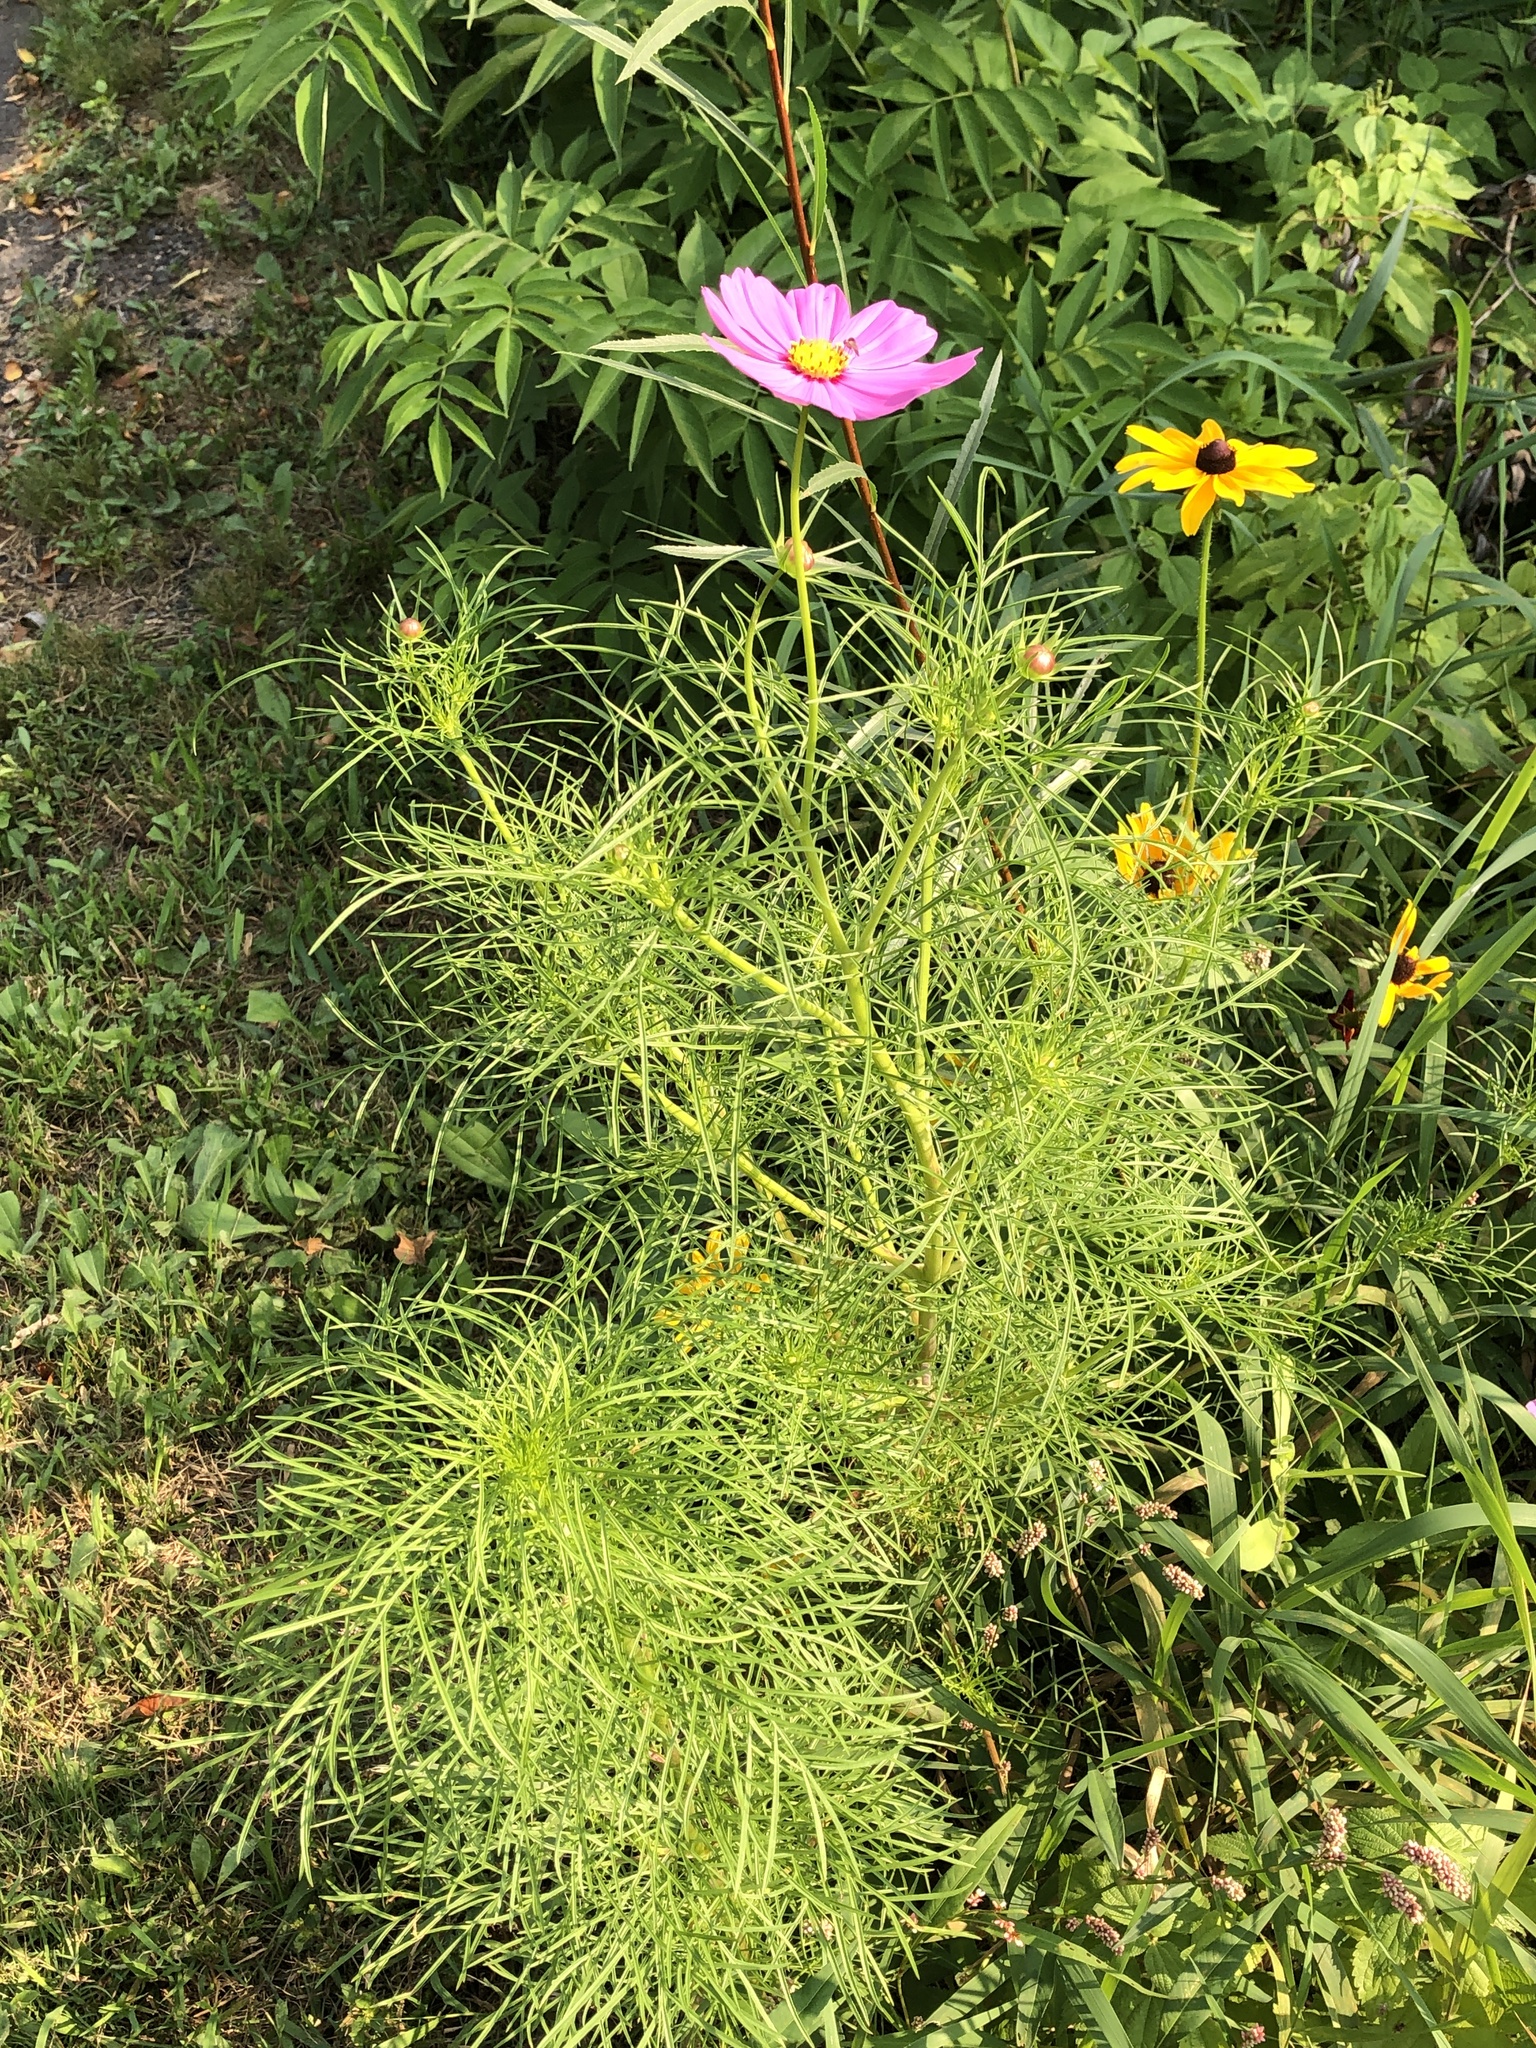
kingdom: Plantae
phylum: Tracheophyta
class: Magnoliopsida
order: Asterales
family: Asteraceae
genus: Cosmos
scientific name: Cosmos bipinnatus
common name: Garden cosmos
